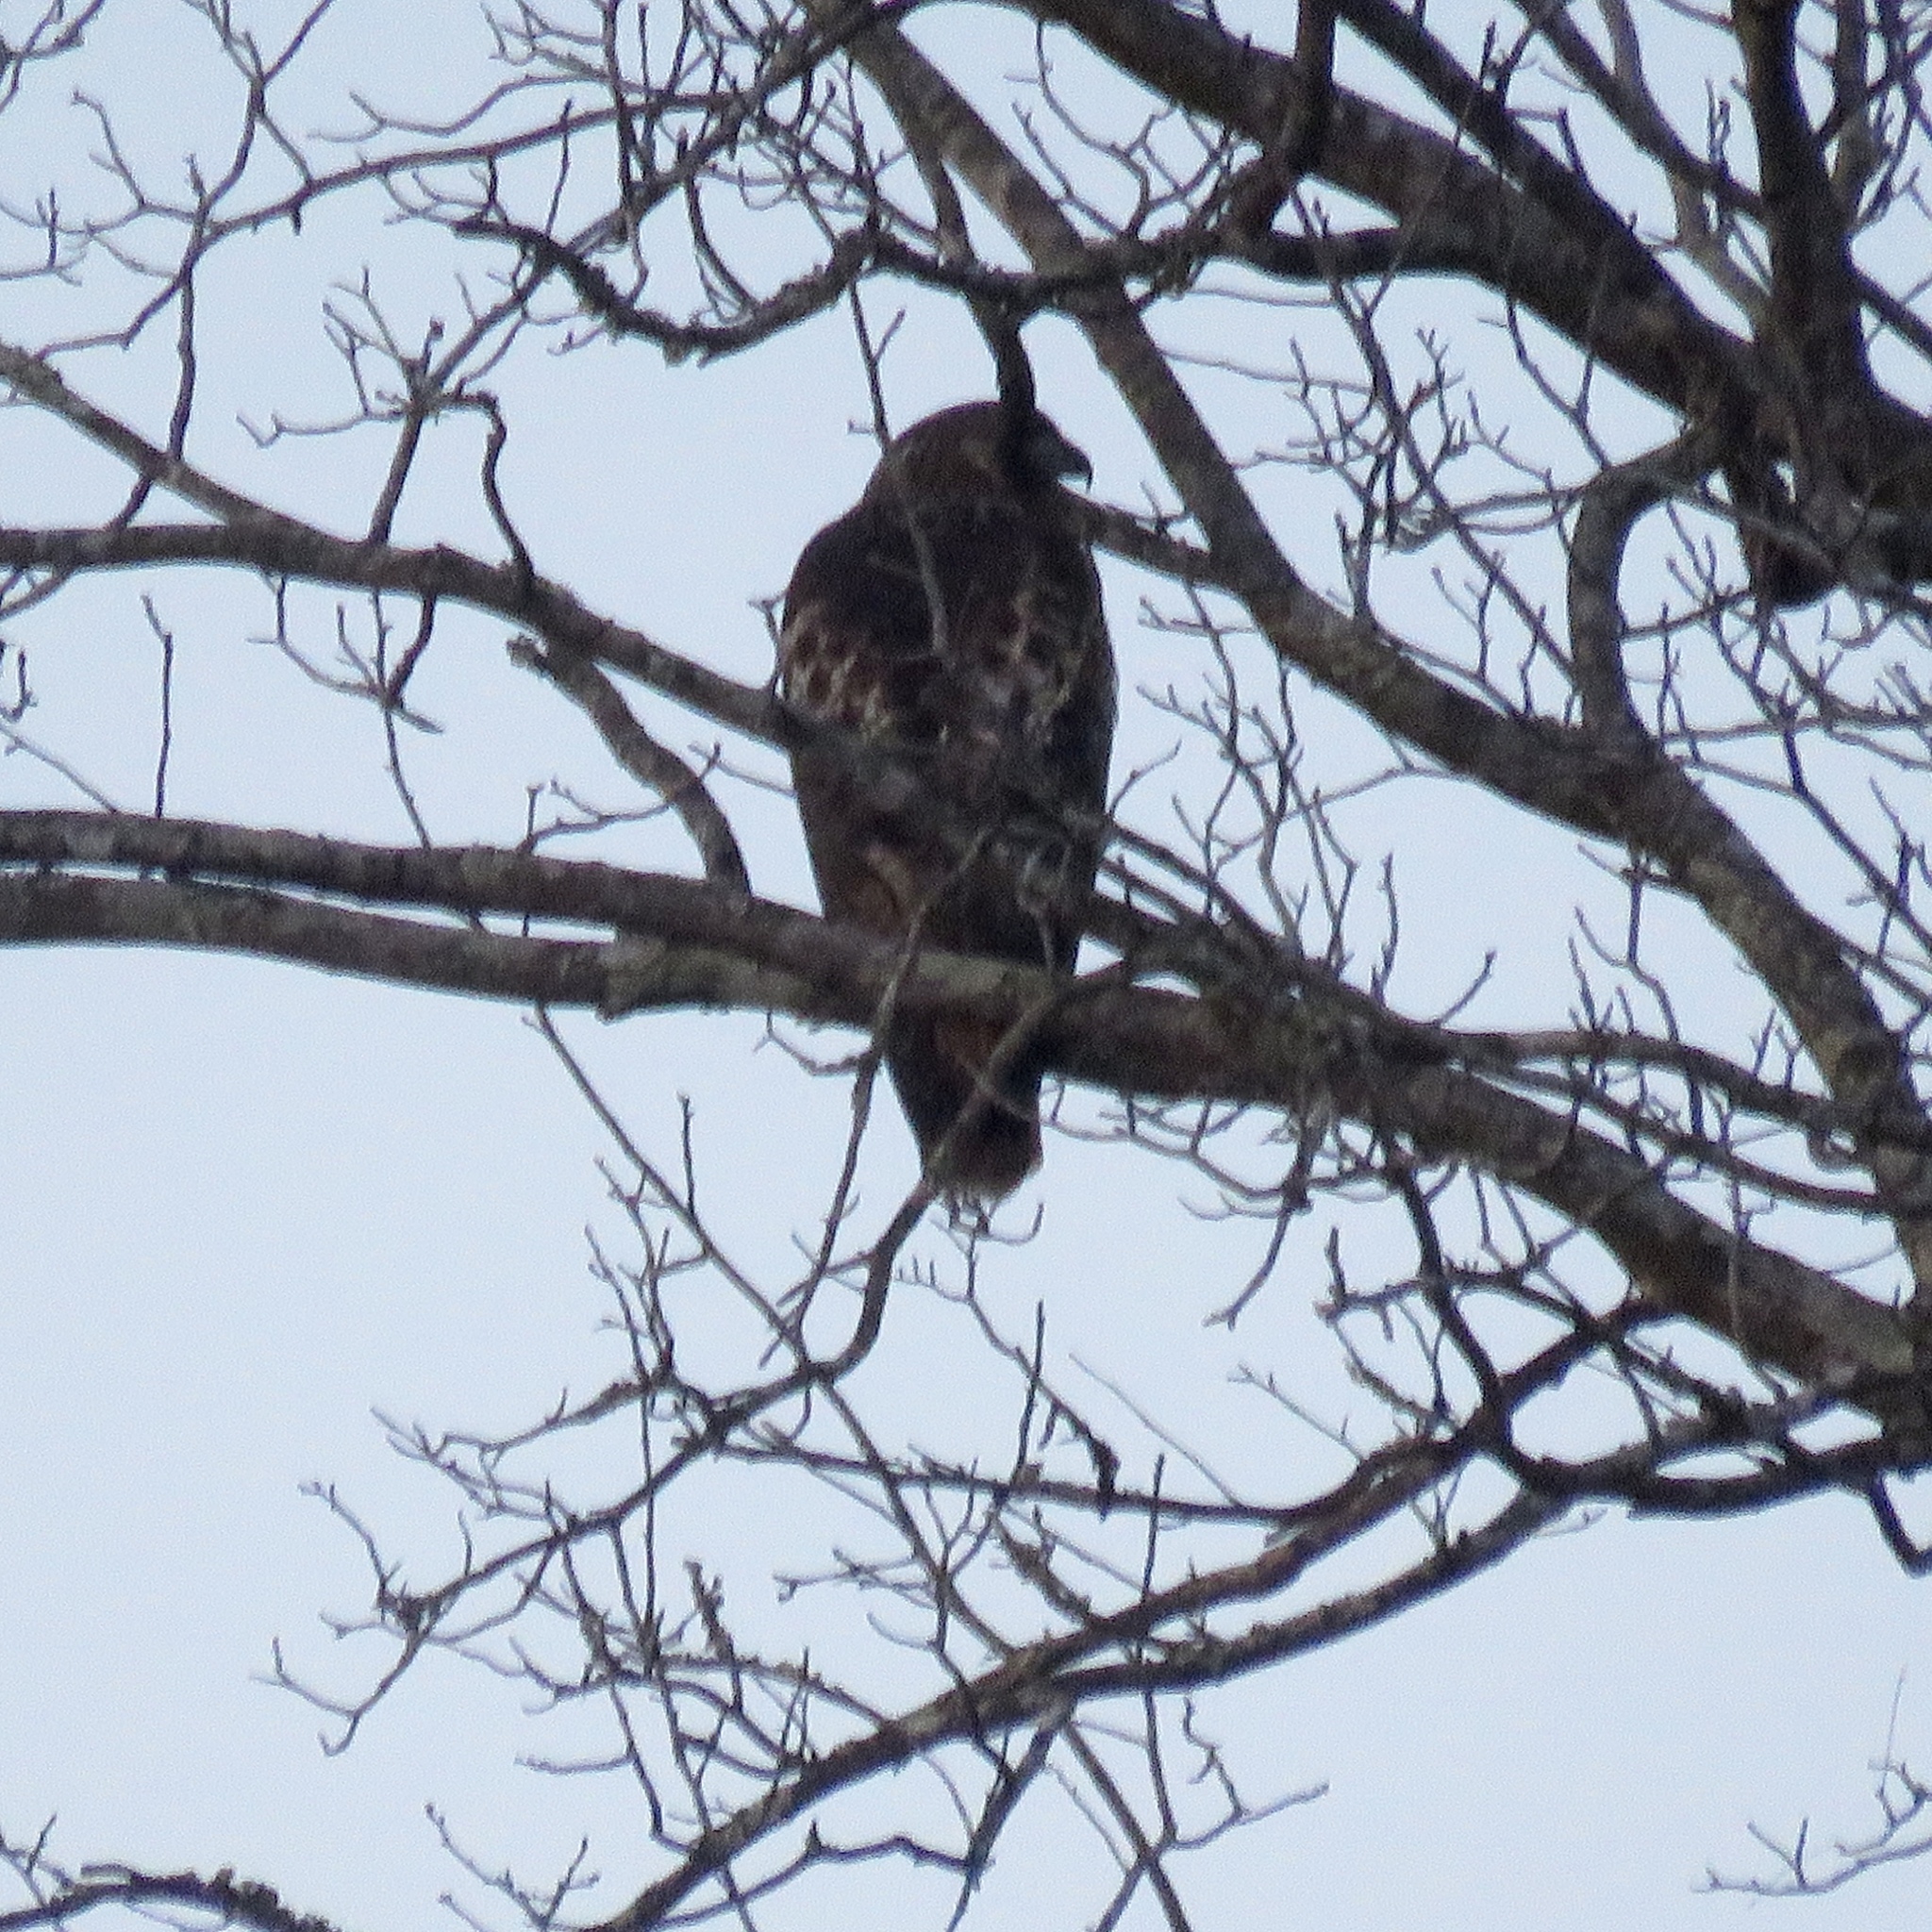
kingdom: Animalia
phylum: Chordata
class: Aves
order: Accipitriformes
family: Accipitridae
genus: Buteo
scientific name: Buteo jamaicensis
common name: Red-tailed hawk
